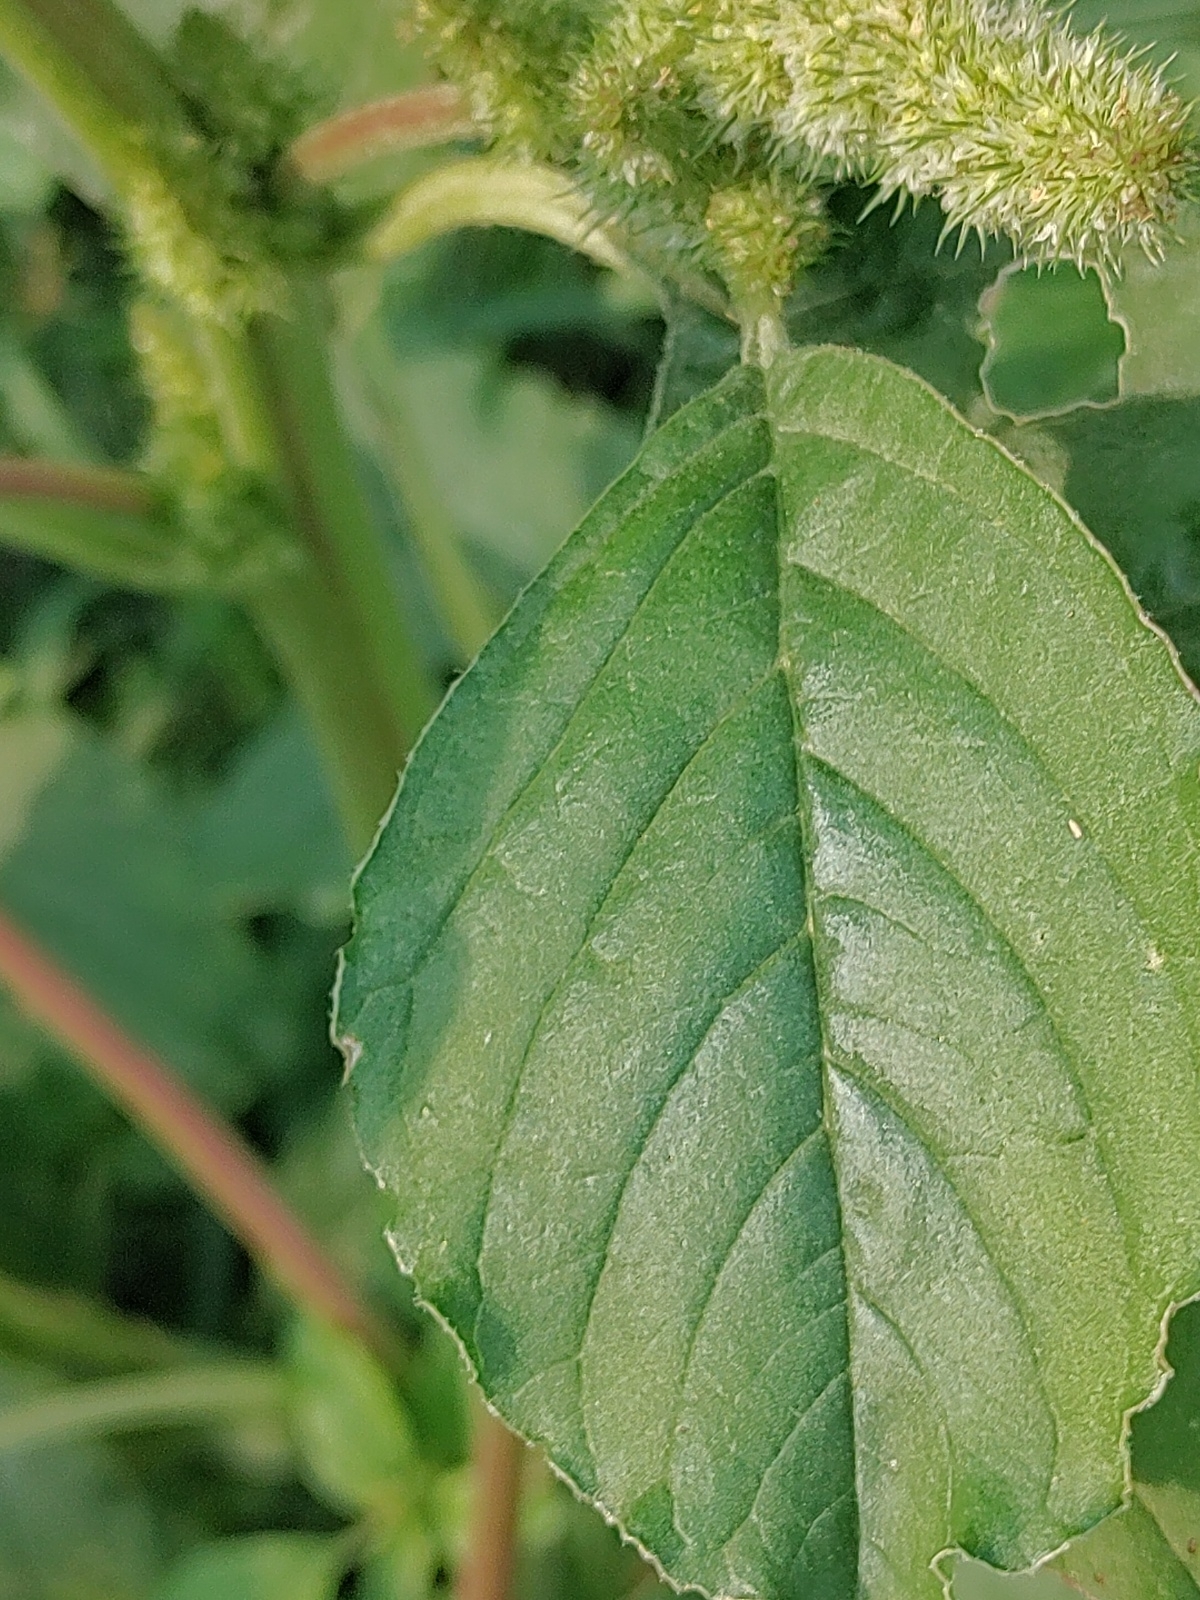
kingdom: Plantae
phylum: Tracheophyta
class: Magnoliopsida
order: Caryophyllales
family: Amaranthaceae
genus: Amaranthus
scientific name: Amaranthus retroflexus
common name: Redroot amaranth
